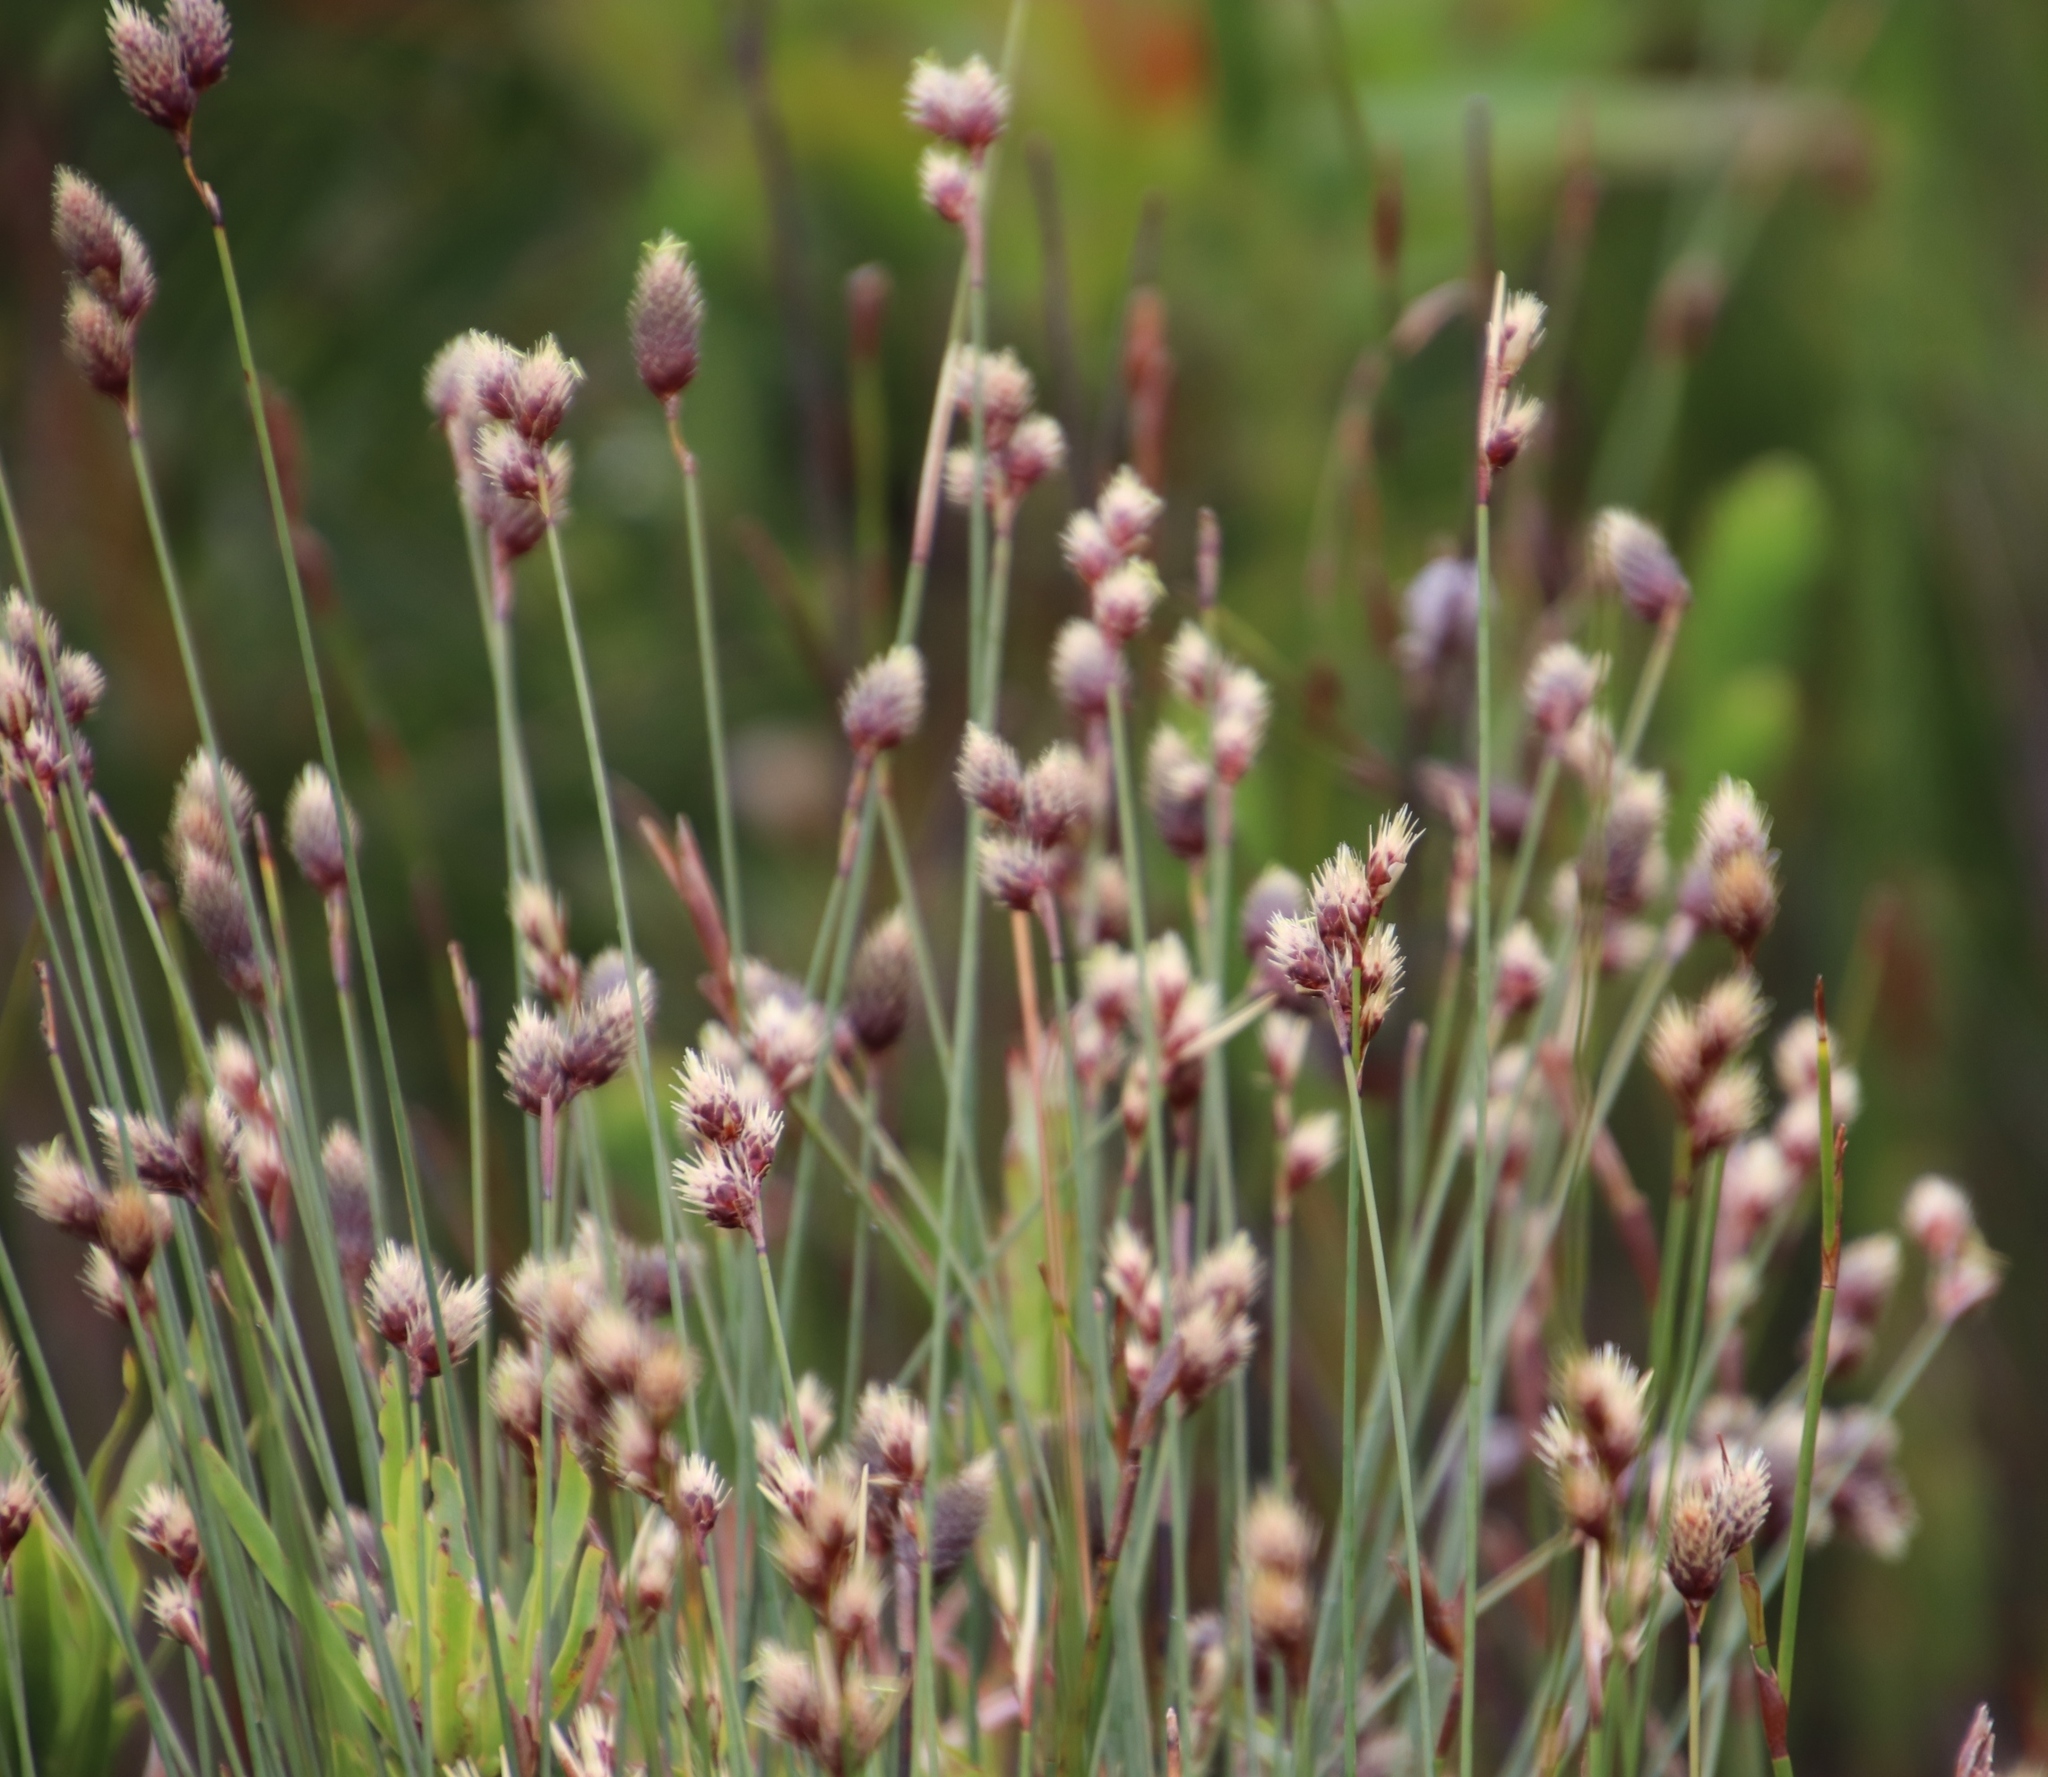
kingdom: Plantae
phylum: Tracheophyta
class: Liliopsida
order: Poales
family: Restionaceae
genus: Hypodiscus
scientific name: Hypodiscus alboaristatus
